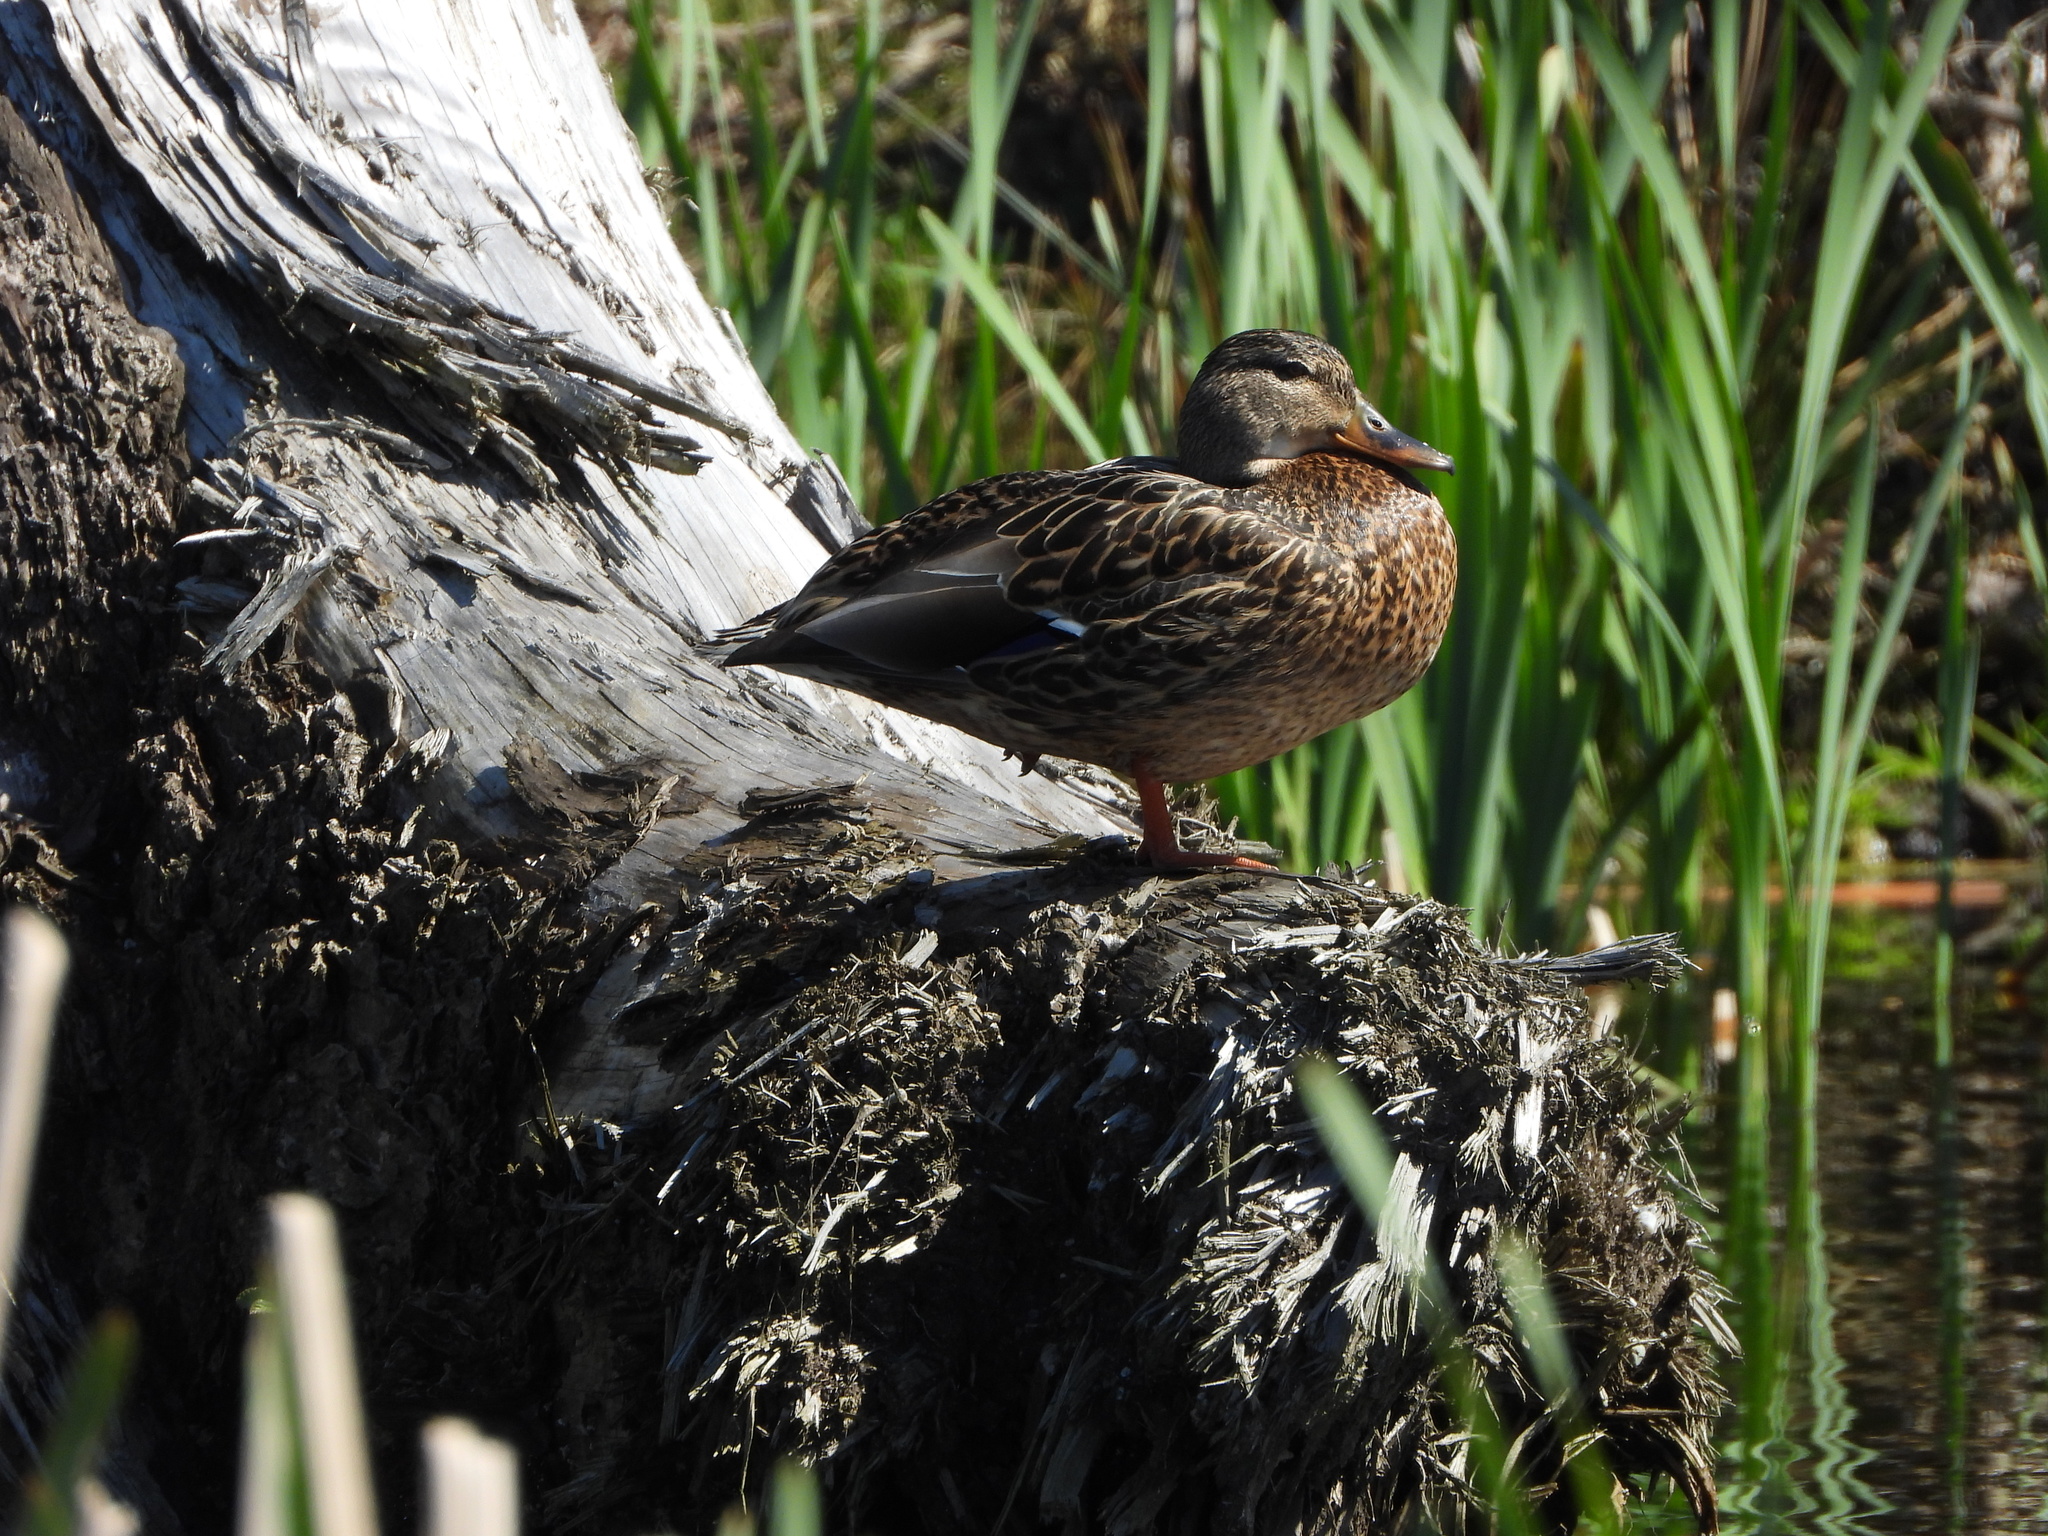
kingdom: Animalia
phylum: Chordata
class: Aves
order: Anseriformes
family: Anatidae
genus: Anas
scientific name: Anas platyrhynchos
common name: Mallard
